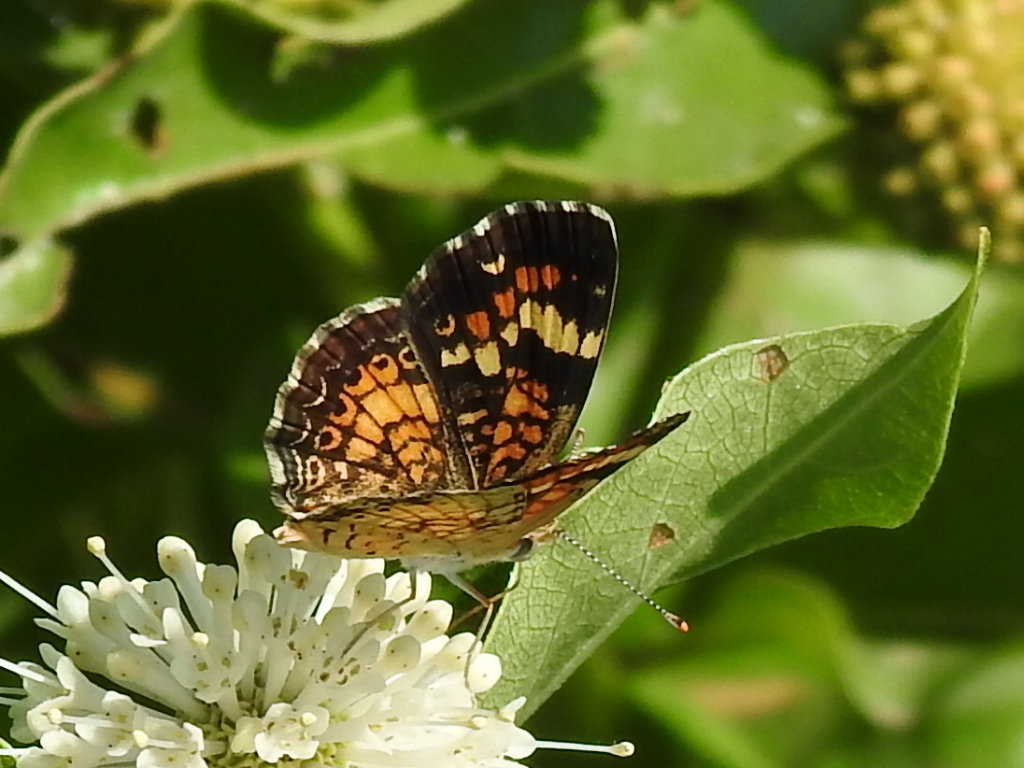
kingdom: Animalia
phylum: Arthropoda
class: Insecta
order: Lepidoptera
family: Nymphalidae
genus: Phyciodes
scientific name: Phyciodes phaon
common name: Phaon crescent
